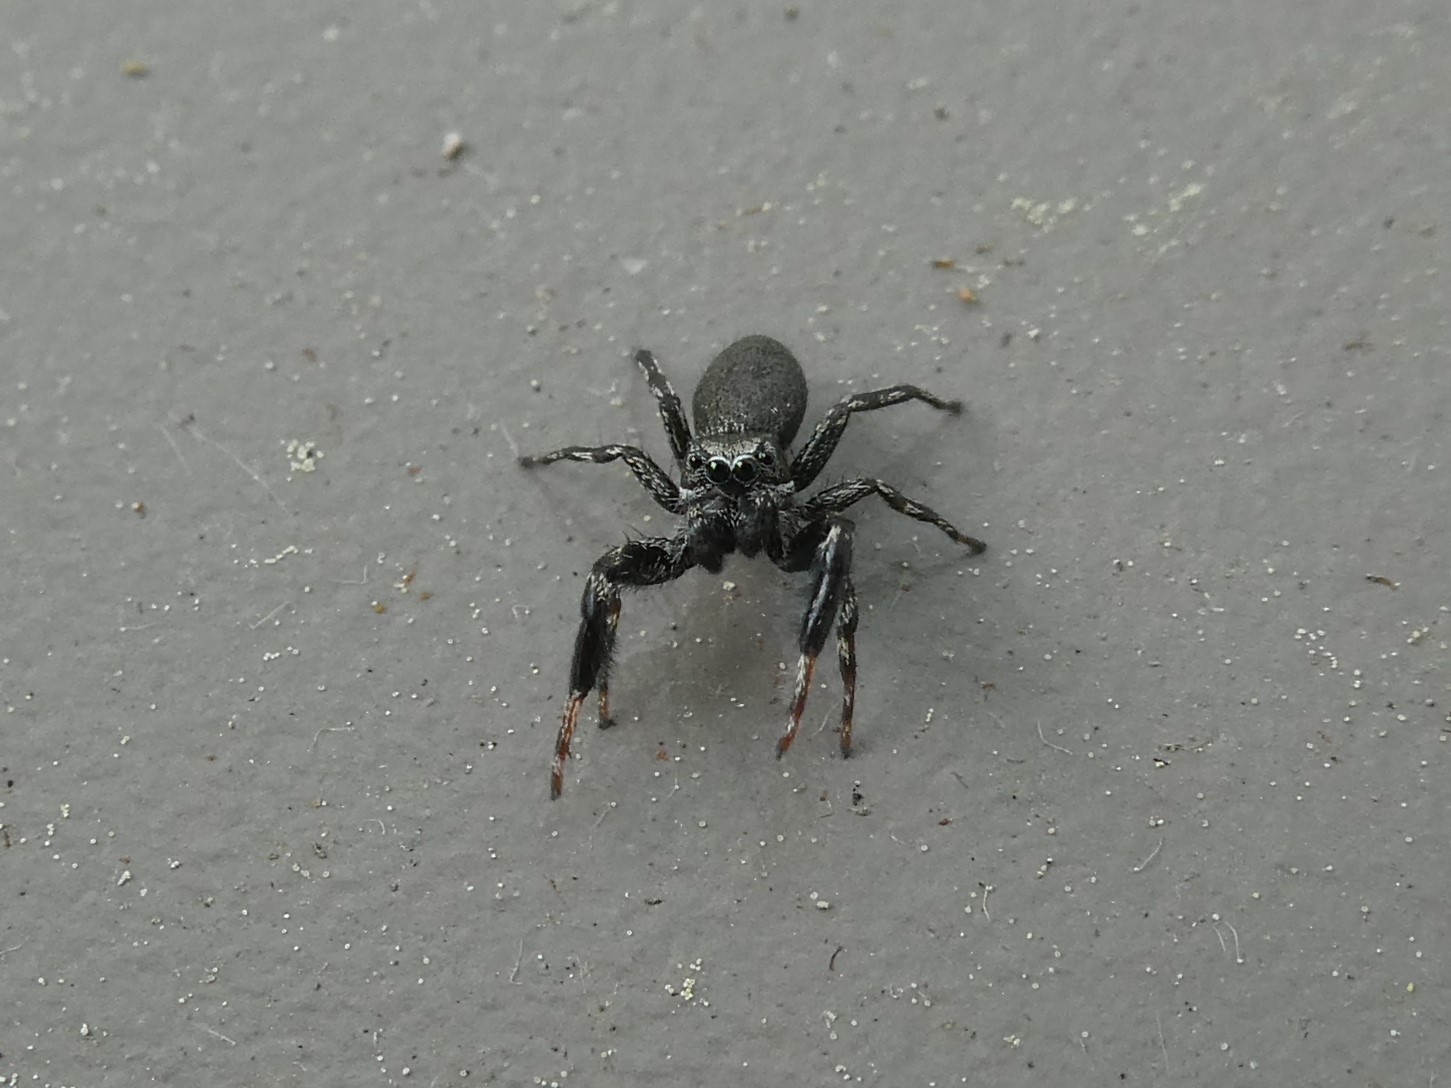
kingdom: Animalia
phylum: Arthropoda
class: Arachnida
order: Araneae
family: Salticidae
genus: Tutelina
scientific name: Tutelina harti
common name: Hart's jumping spider
